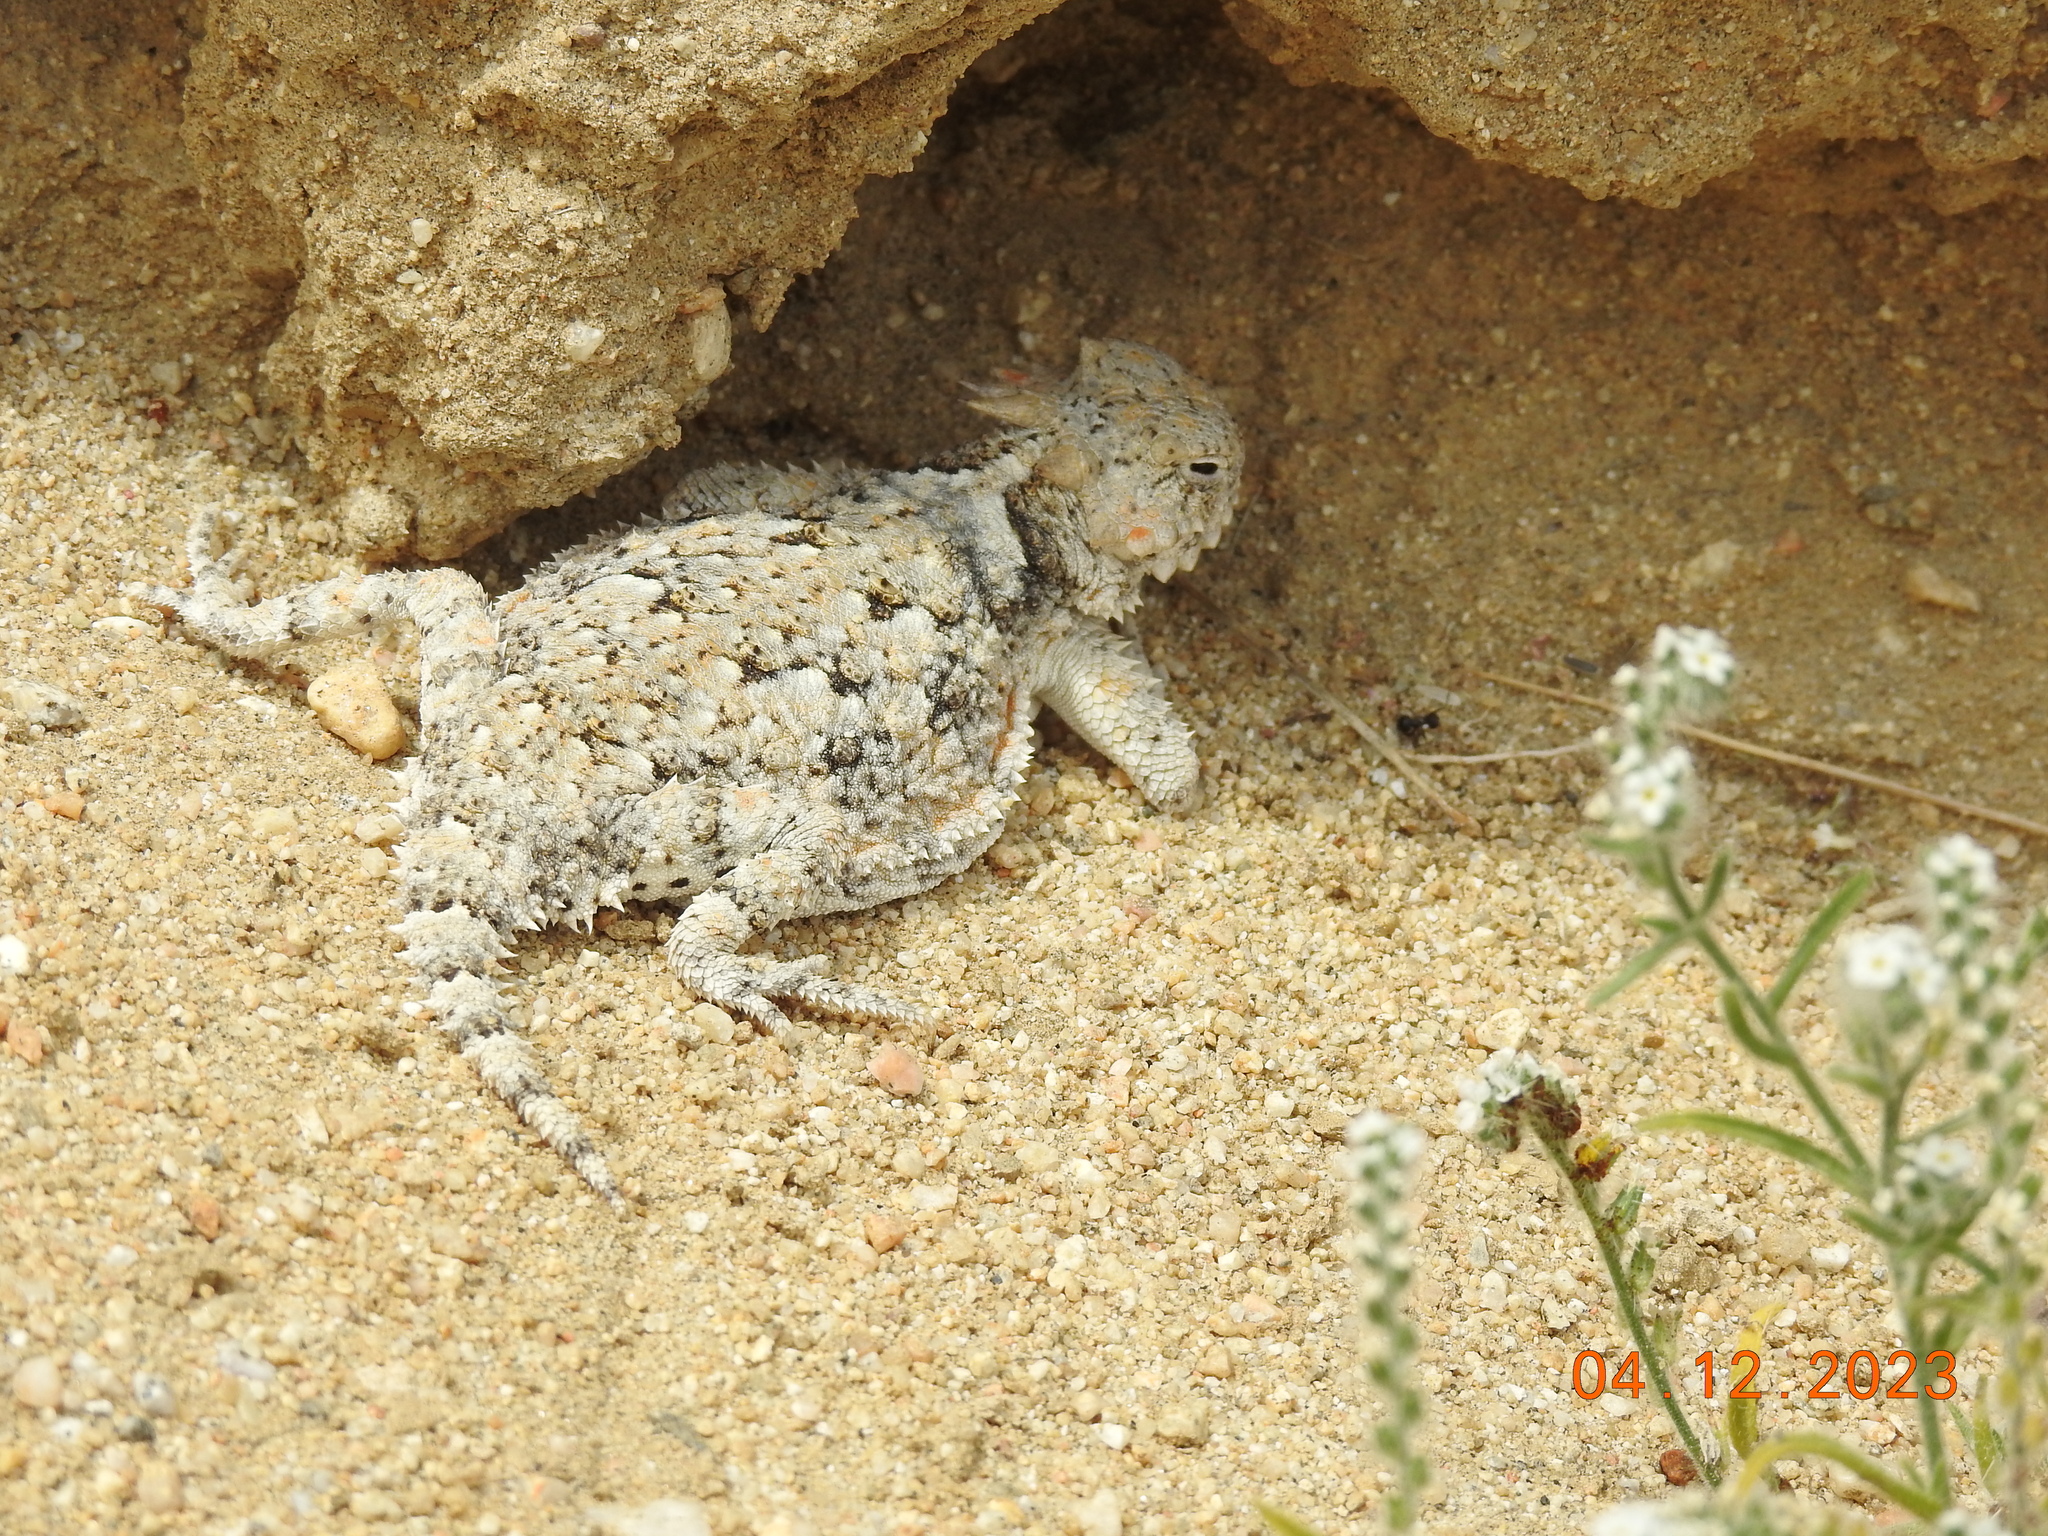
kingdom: Animalia
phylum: Chordata
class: Squamata
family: Phrynosomatidae
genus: Phrynosoma
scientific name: Phrynosoma platyrhinos
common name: Desert horned lizard
